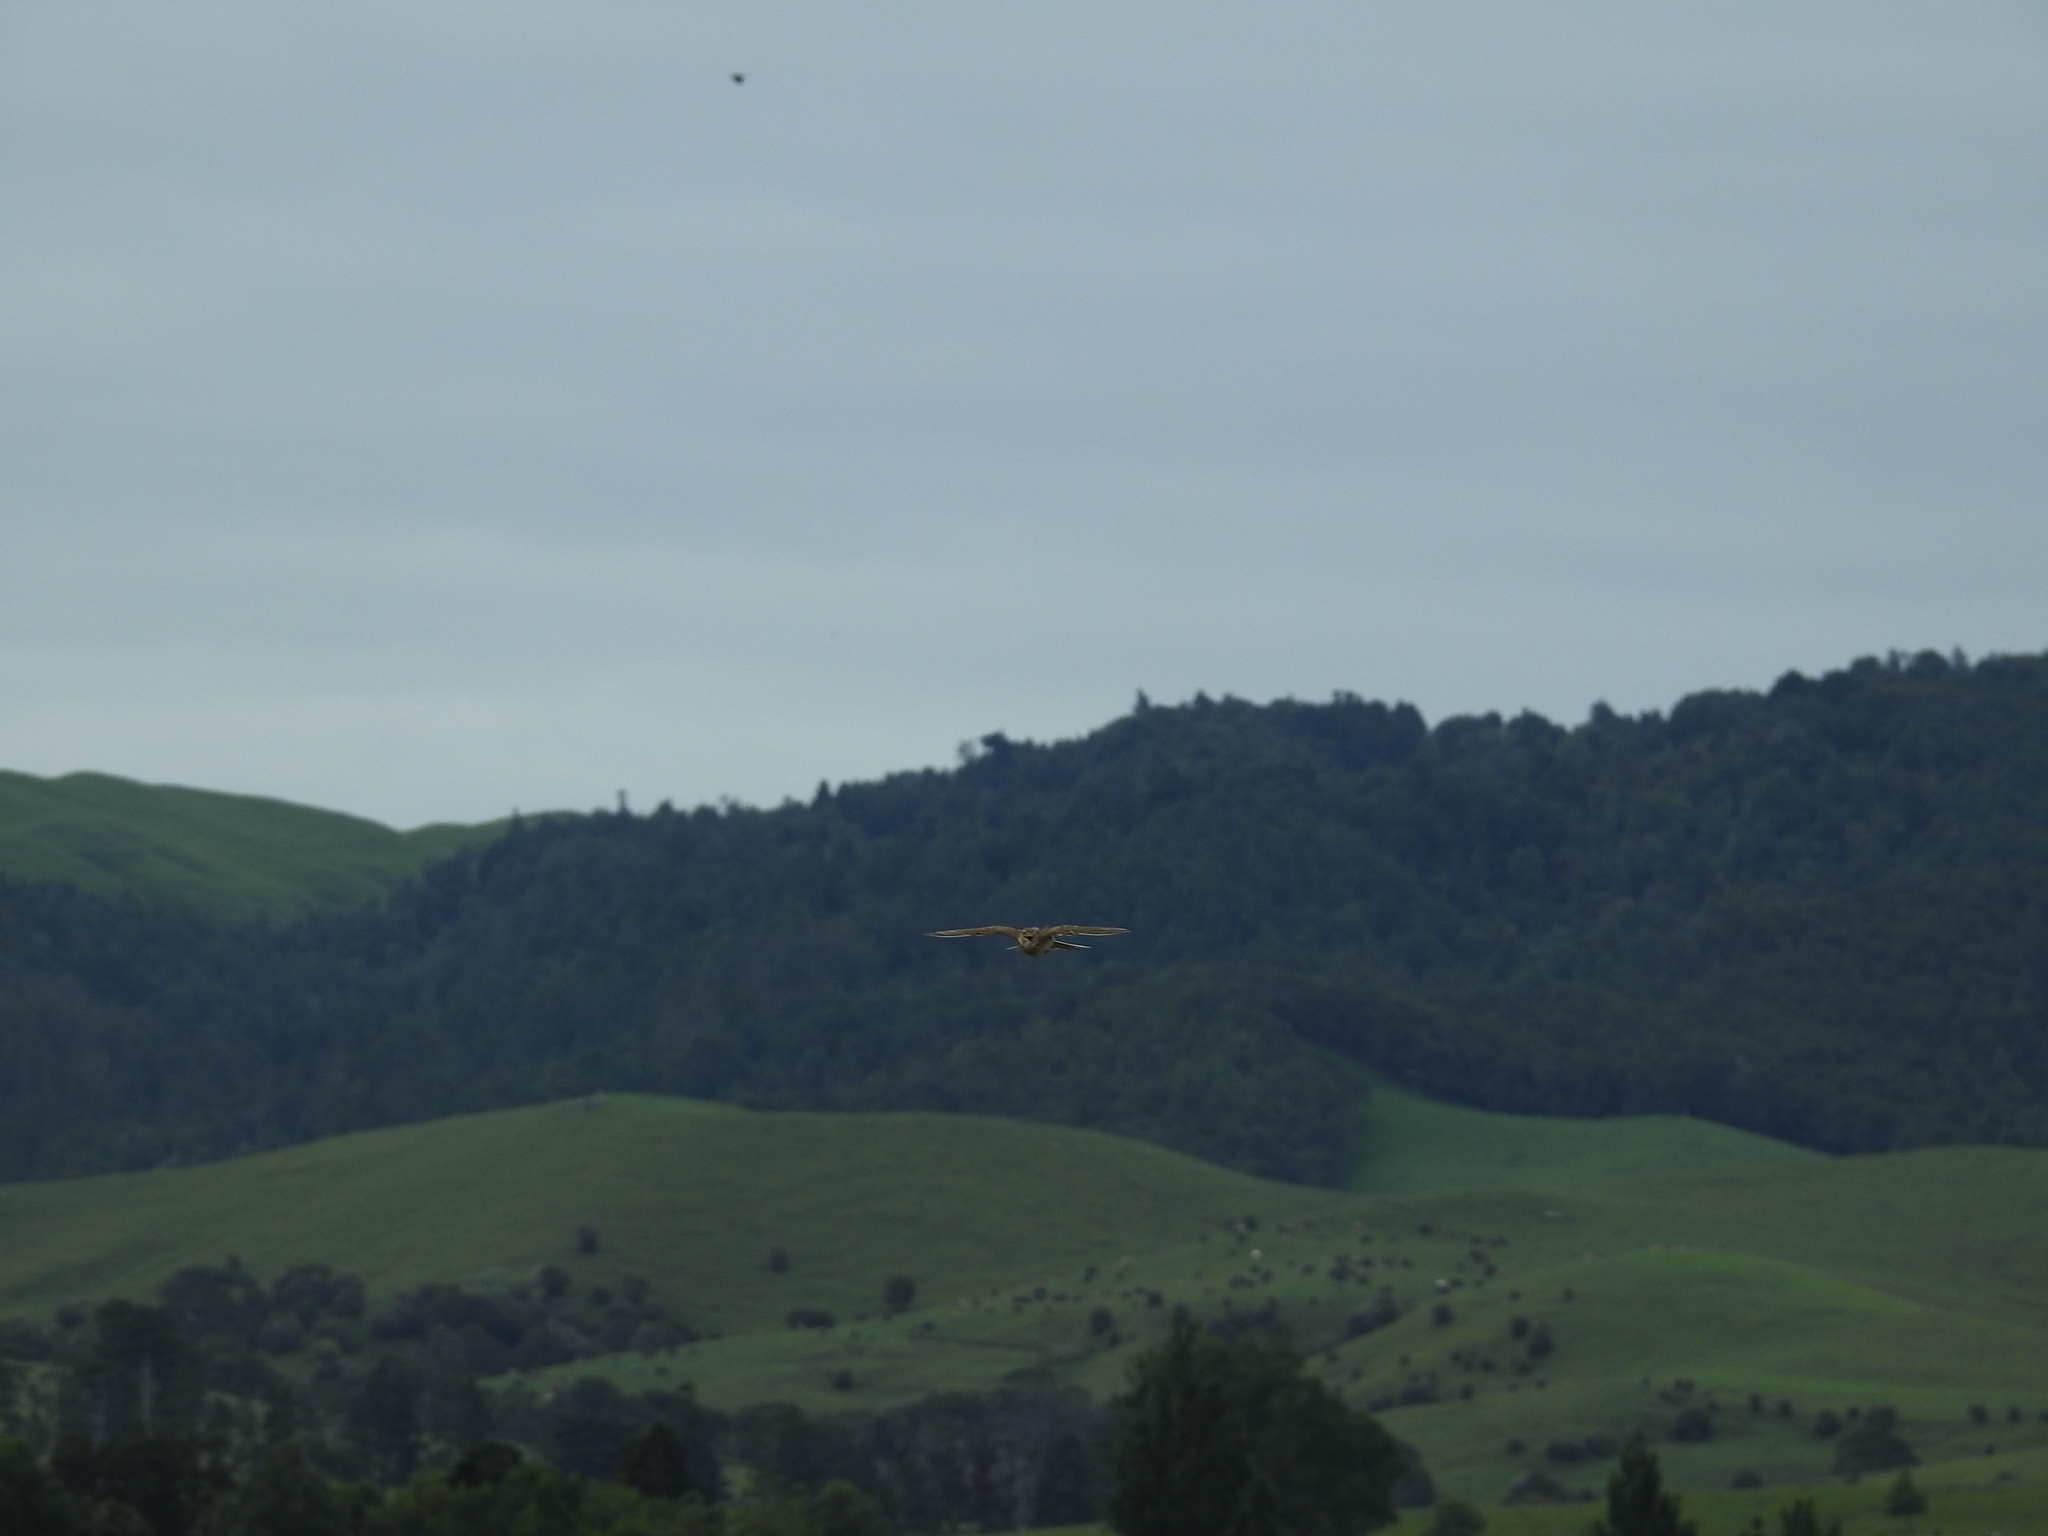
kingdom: Animalia
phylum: Chordata
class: Aves
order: Passeriformes
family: Alaudidae
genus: Alauda
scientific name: Alauda arvensis
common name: Eurasian skylark
